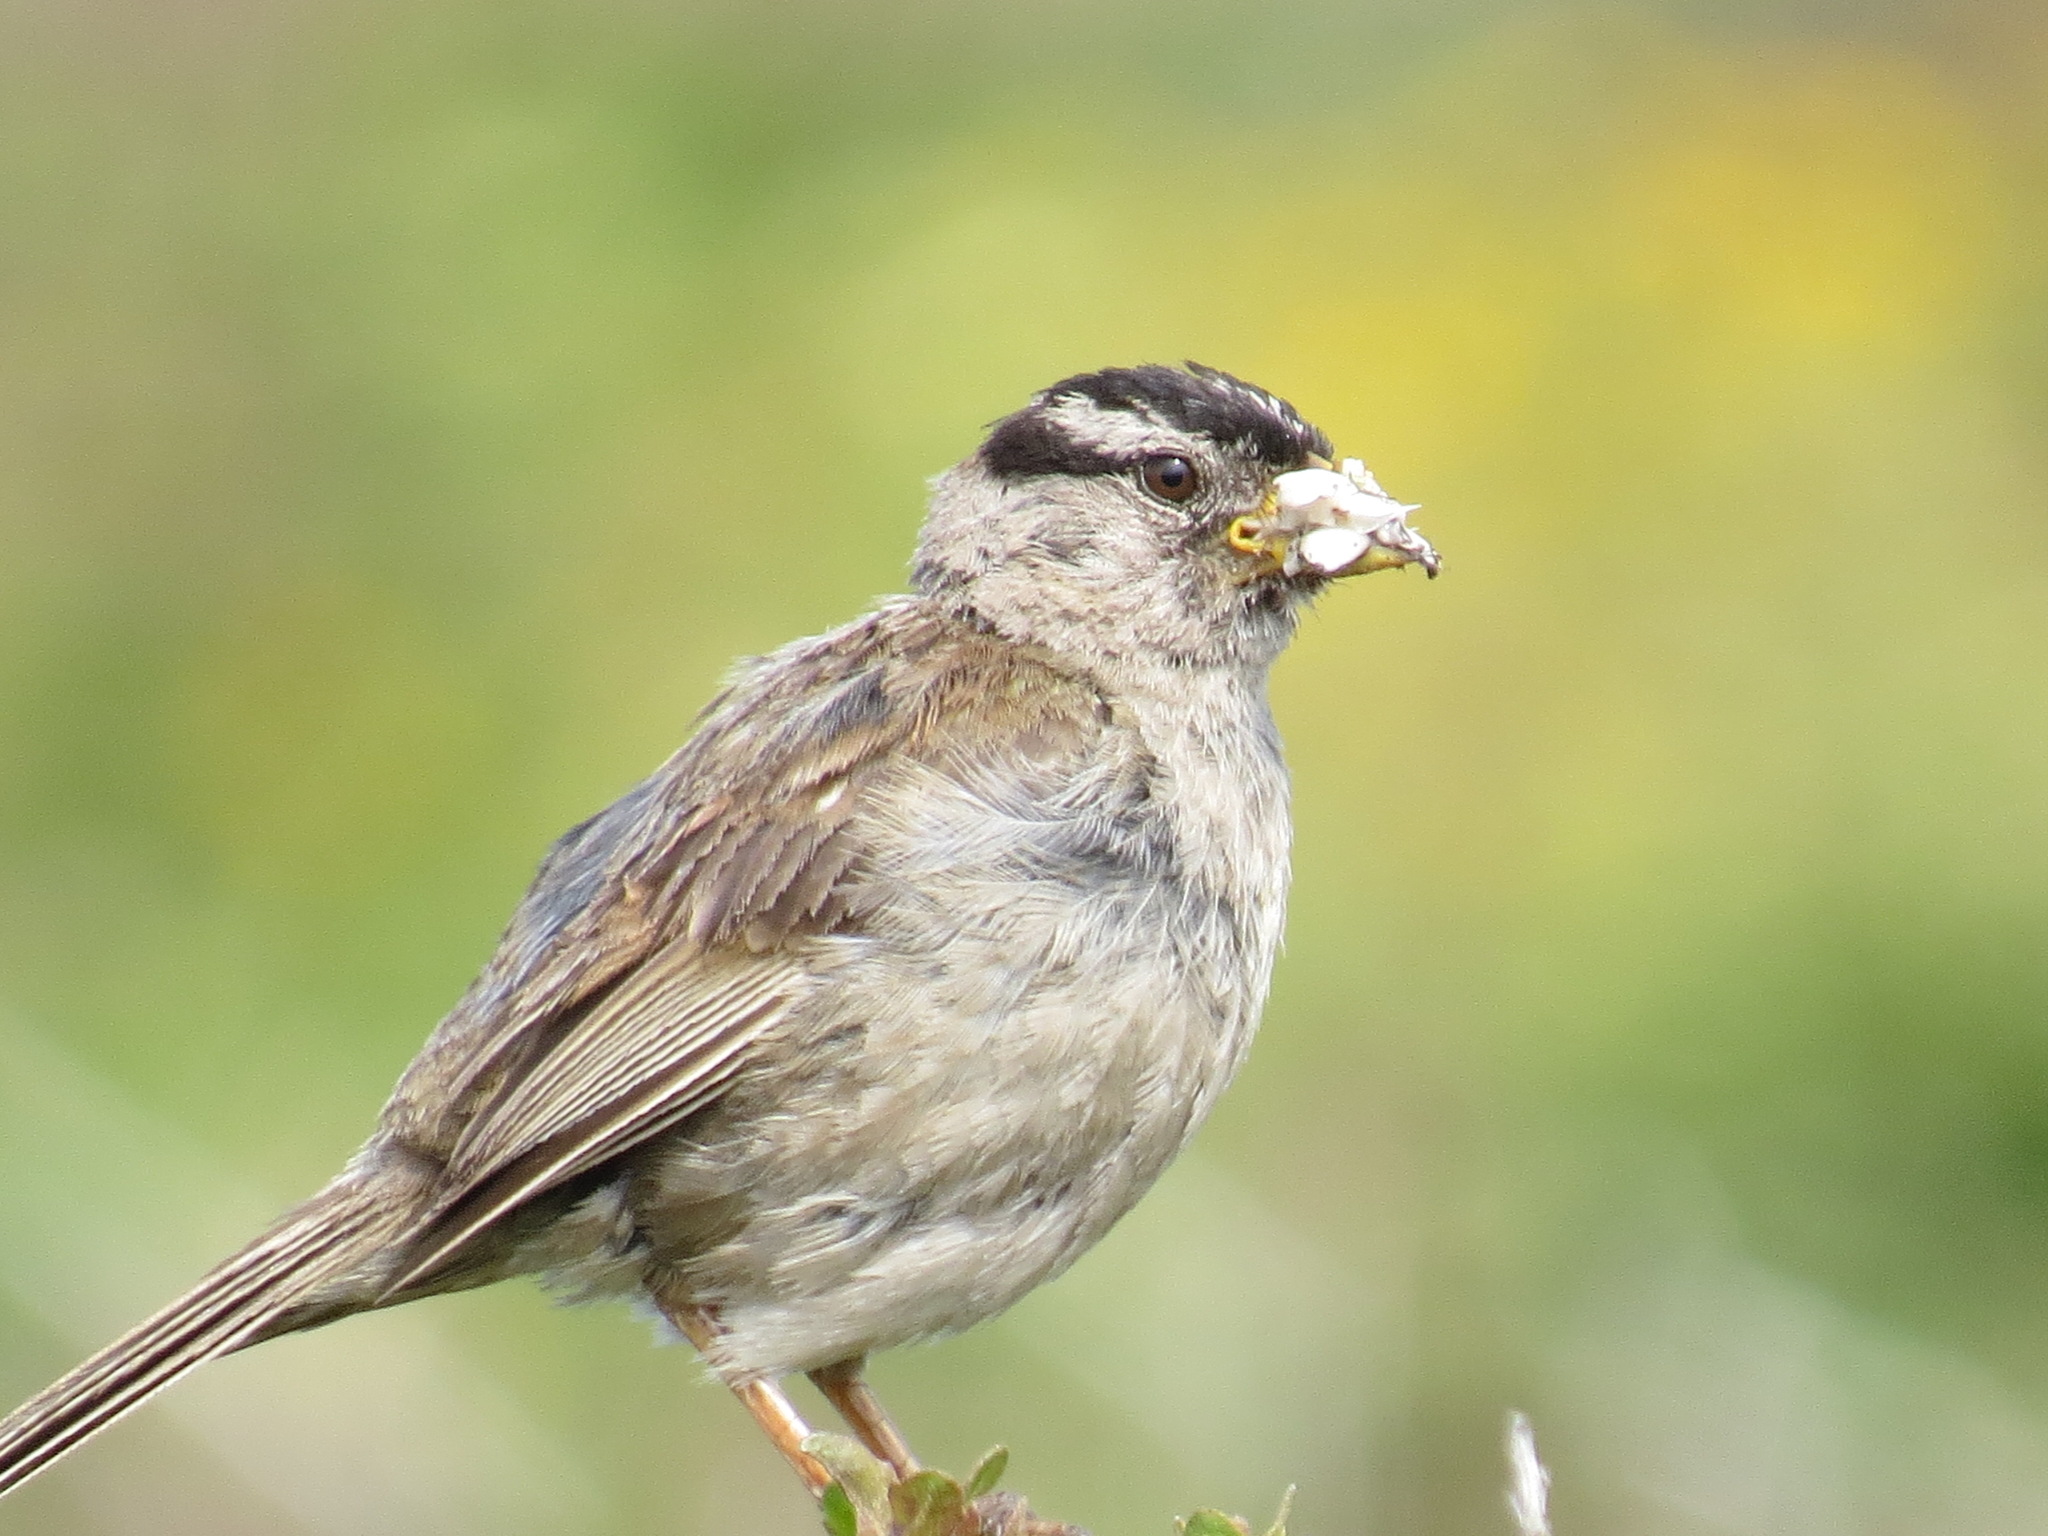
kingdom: Animalia
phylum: Chordata
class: Aves
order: Passeriformes
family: Passerellidae
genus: Zonotrichia
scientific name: Zonotrichia leucophrys
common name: White-crowned sparrow
